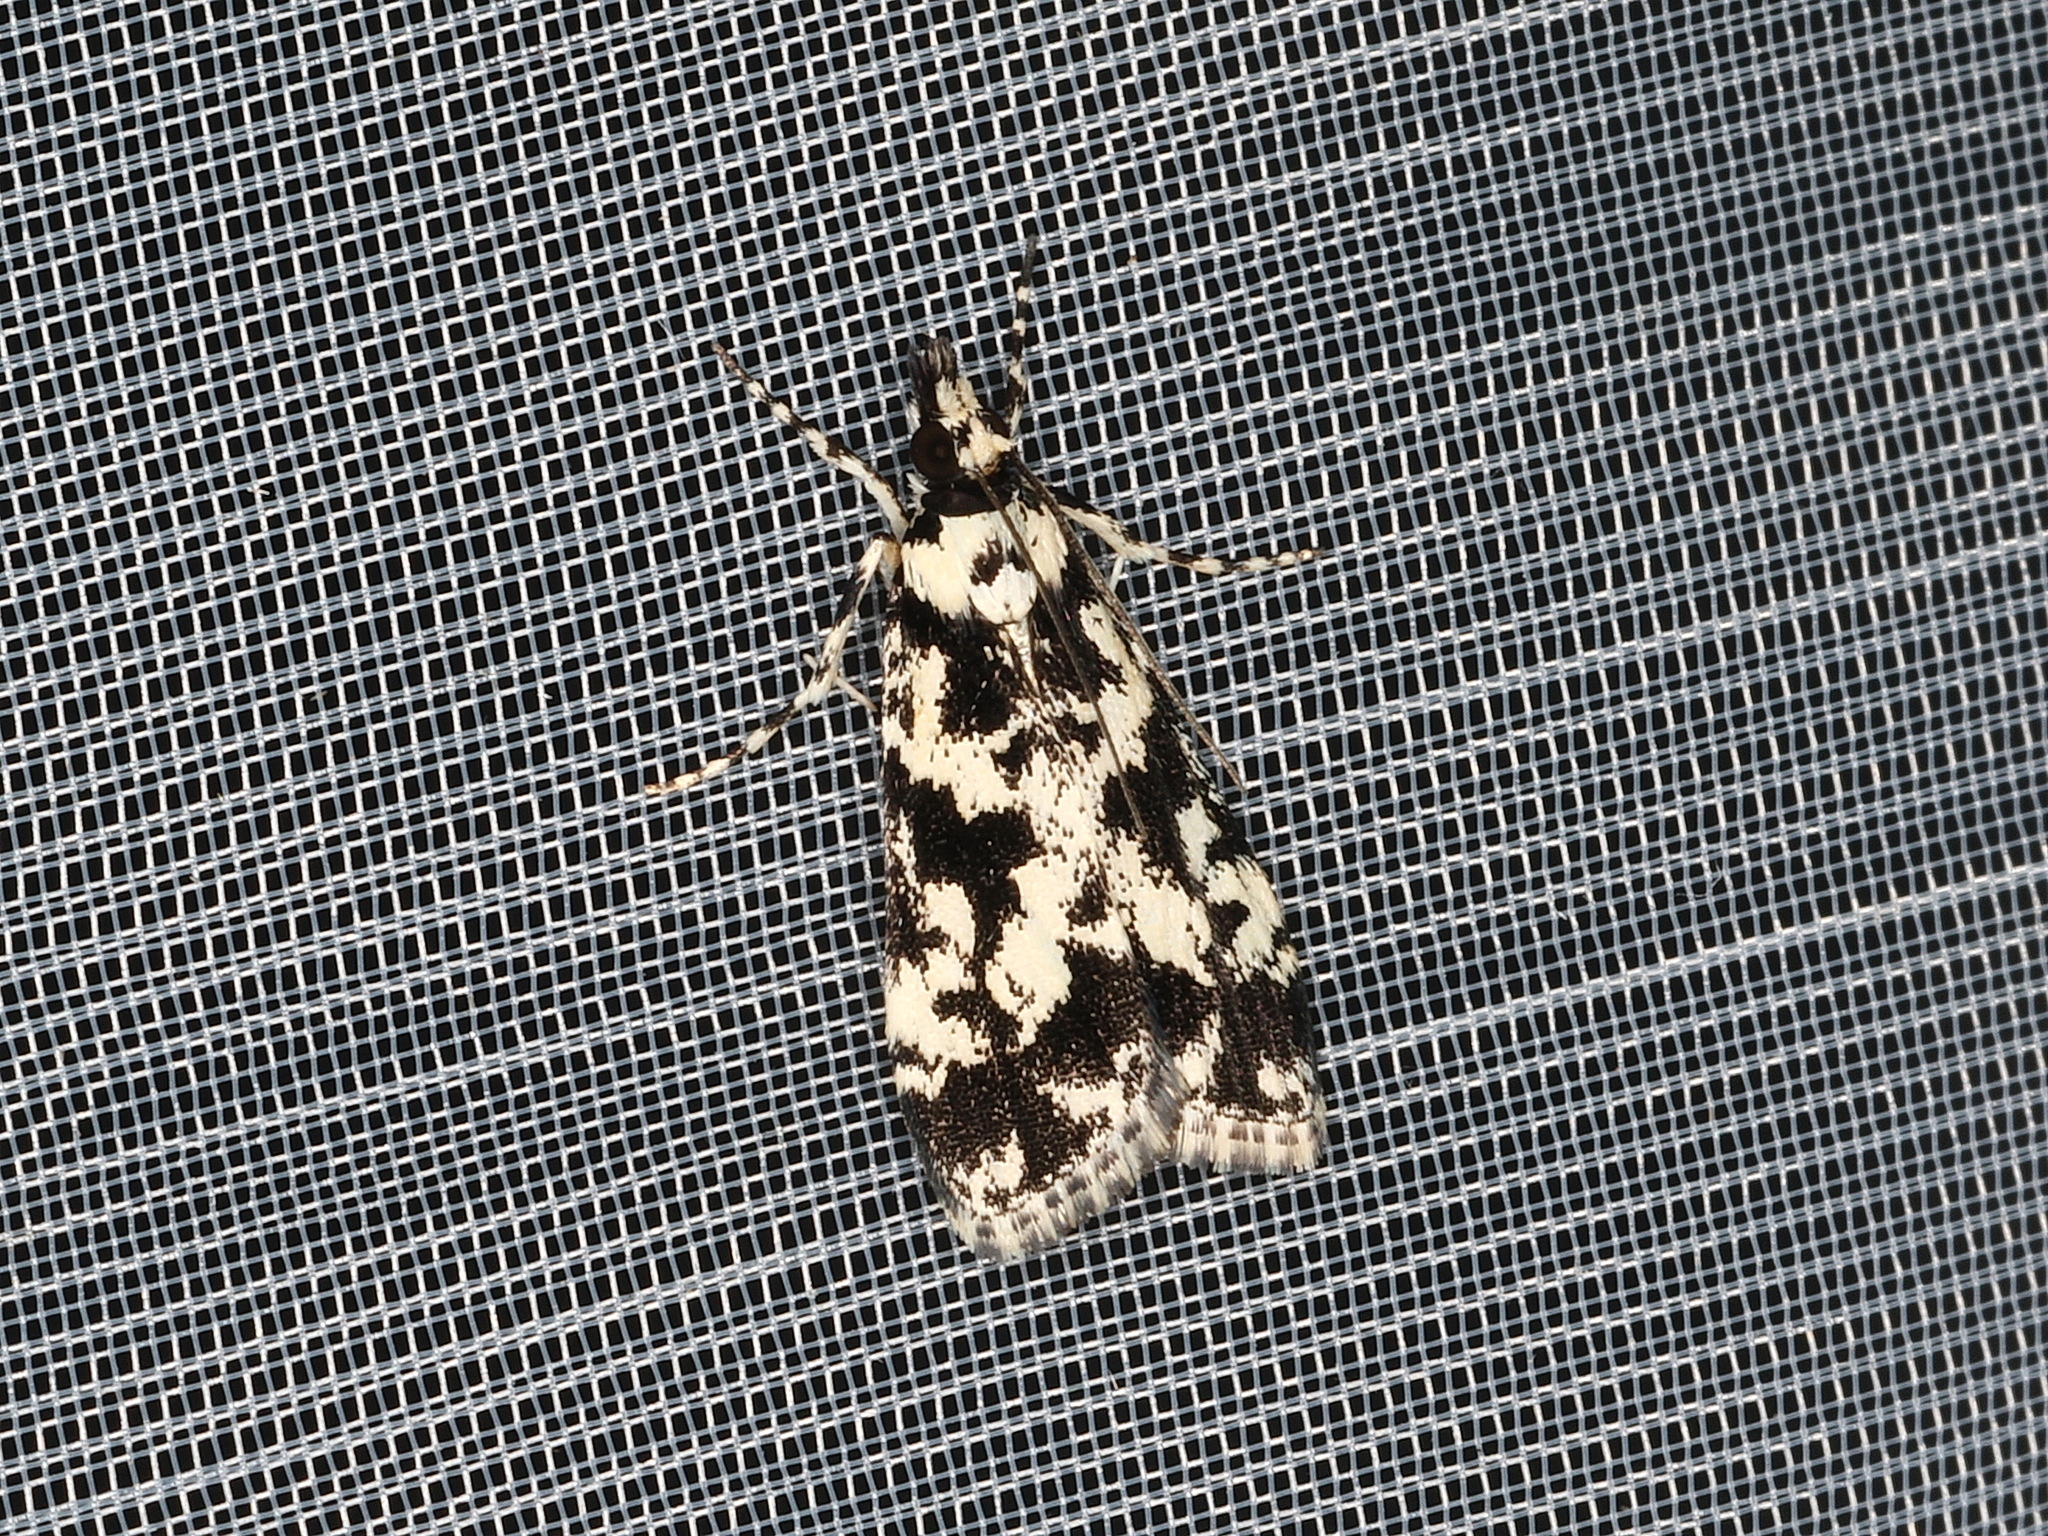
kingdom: Animalia
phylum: Arthropoda
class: Insecta
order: Lepidoptera
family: Crambidae
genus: Scoparia
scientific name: Scoparia exhibitalis
